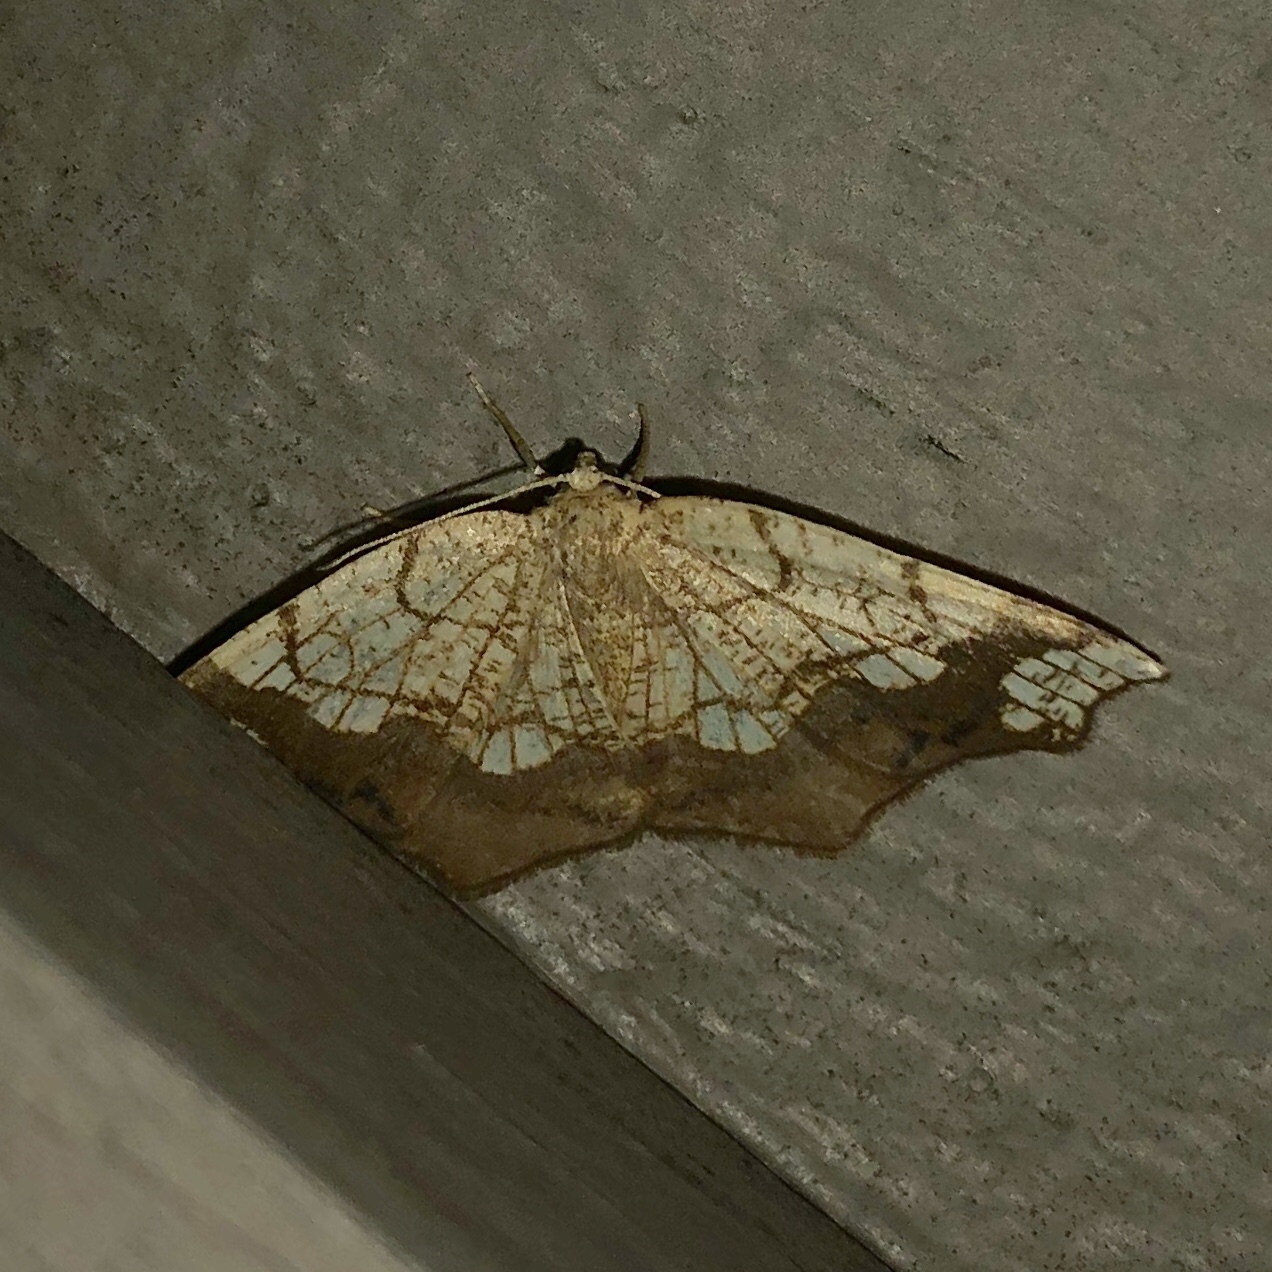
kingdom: Animalia
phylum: Arthropoda
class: Insecta
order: Lepidoptera
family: Geometridae
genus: Nematocampa
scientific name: Nematocampa resistaria
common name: Horned spanworm moth
